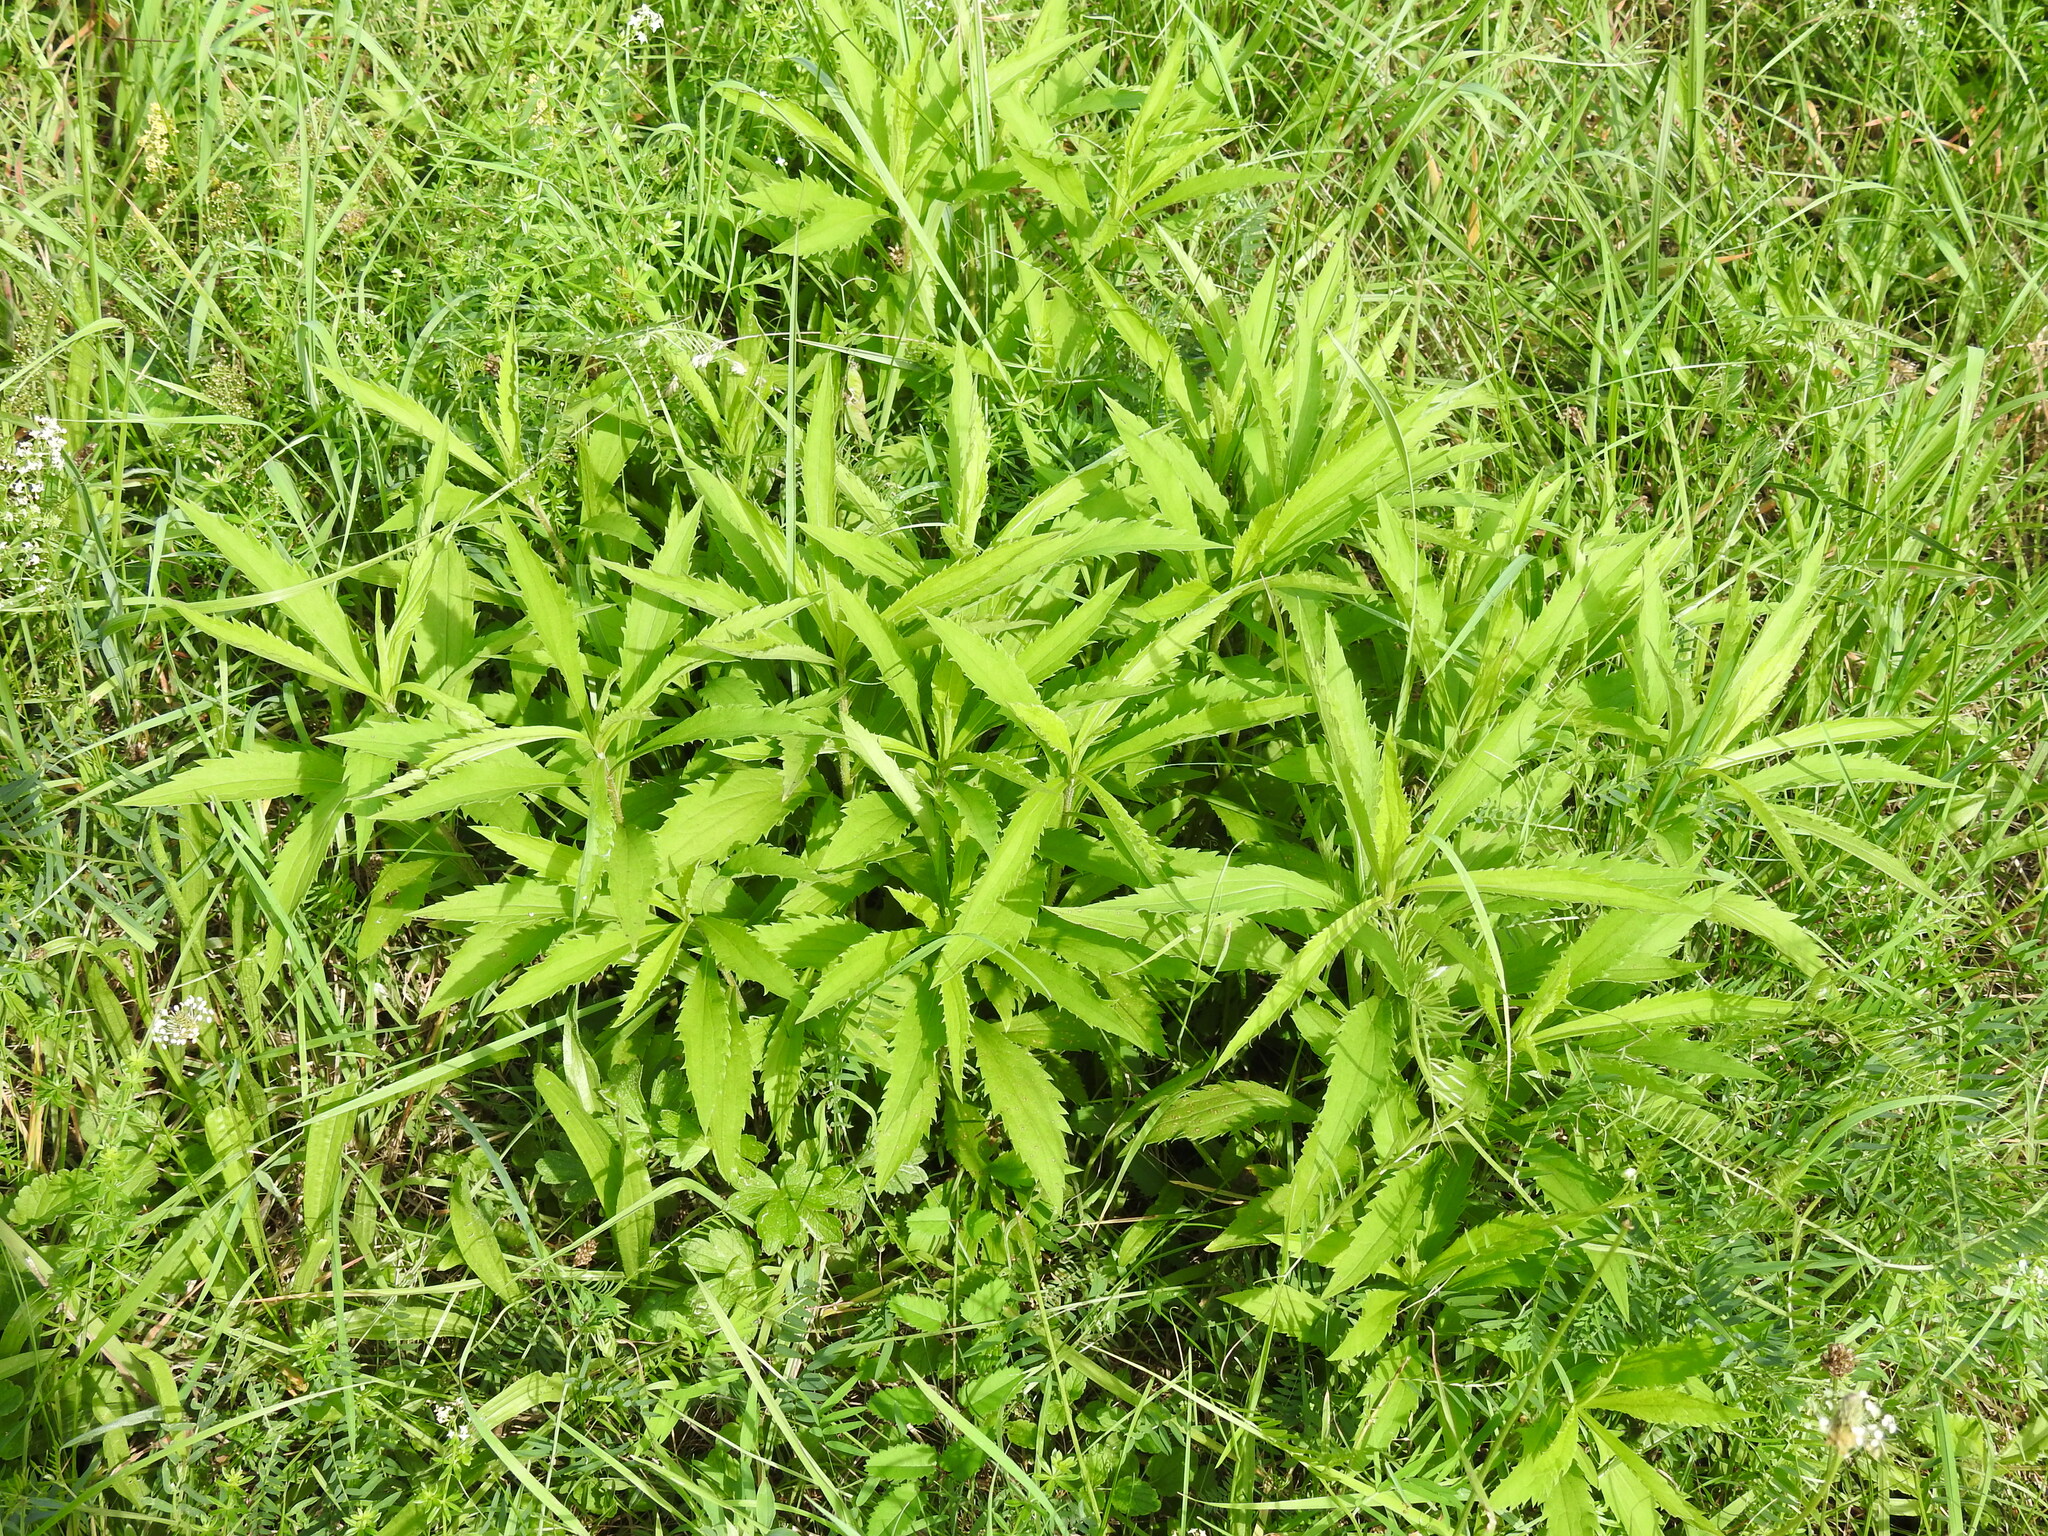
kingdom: Plantae
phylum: Tracheophyta
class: Magnoliopsida
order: Asterales
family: Asteraceae
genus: Solidago
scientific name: Solidago canadensis
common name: Canada goldenrod
